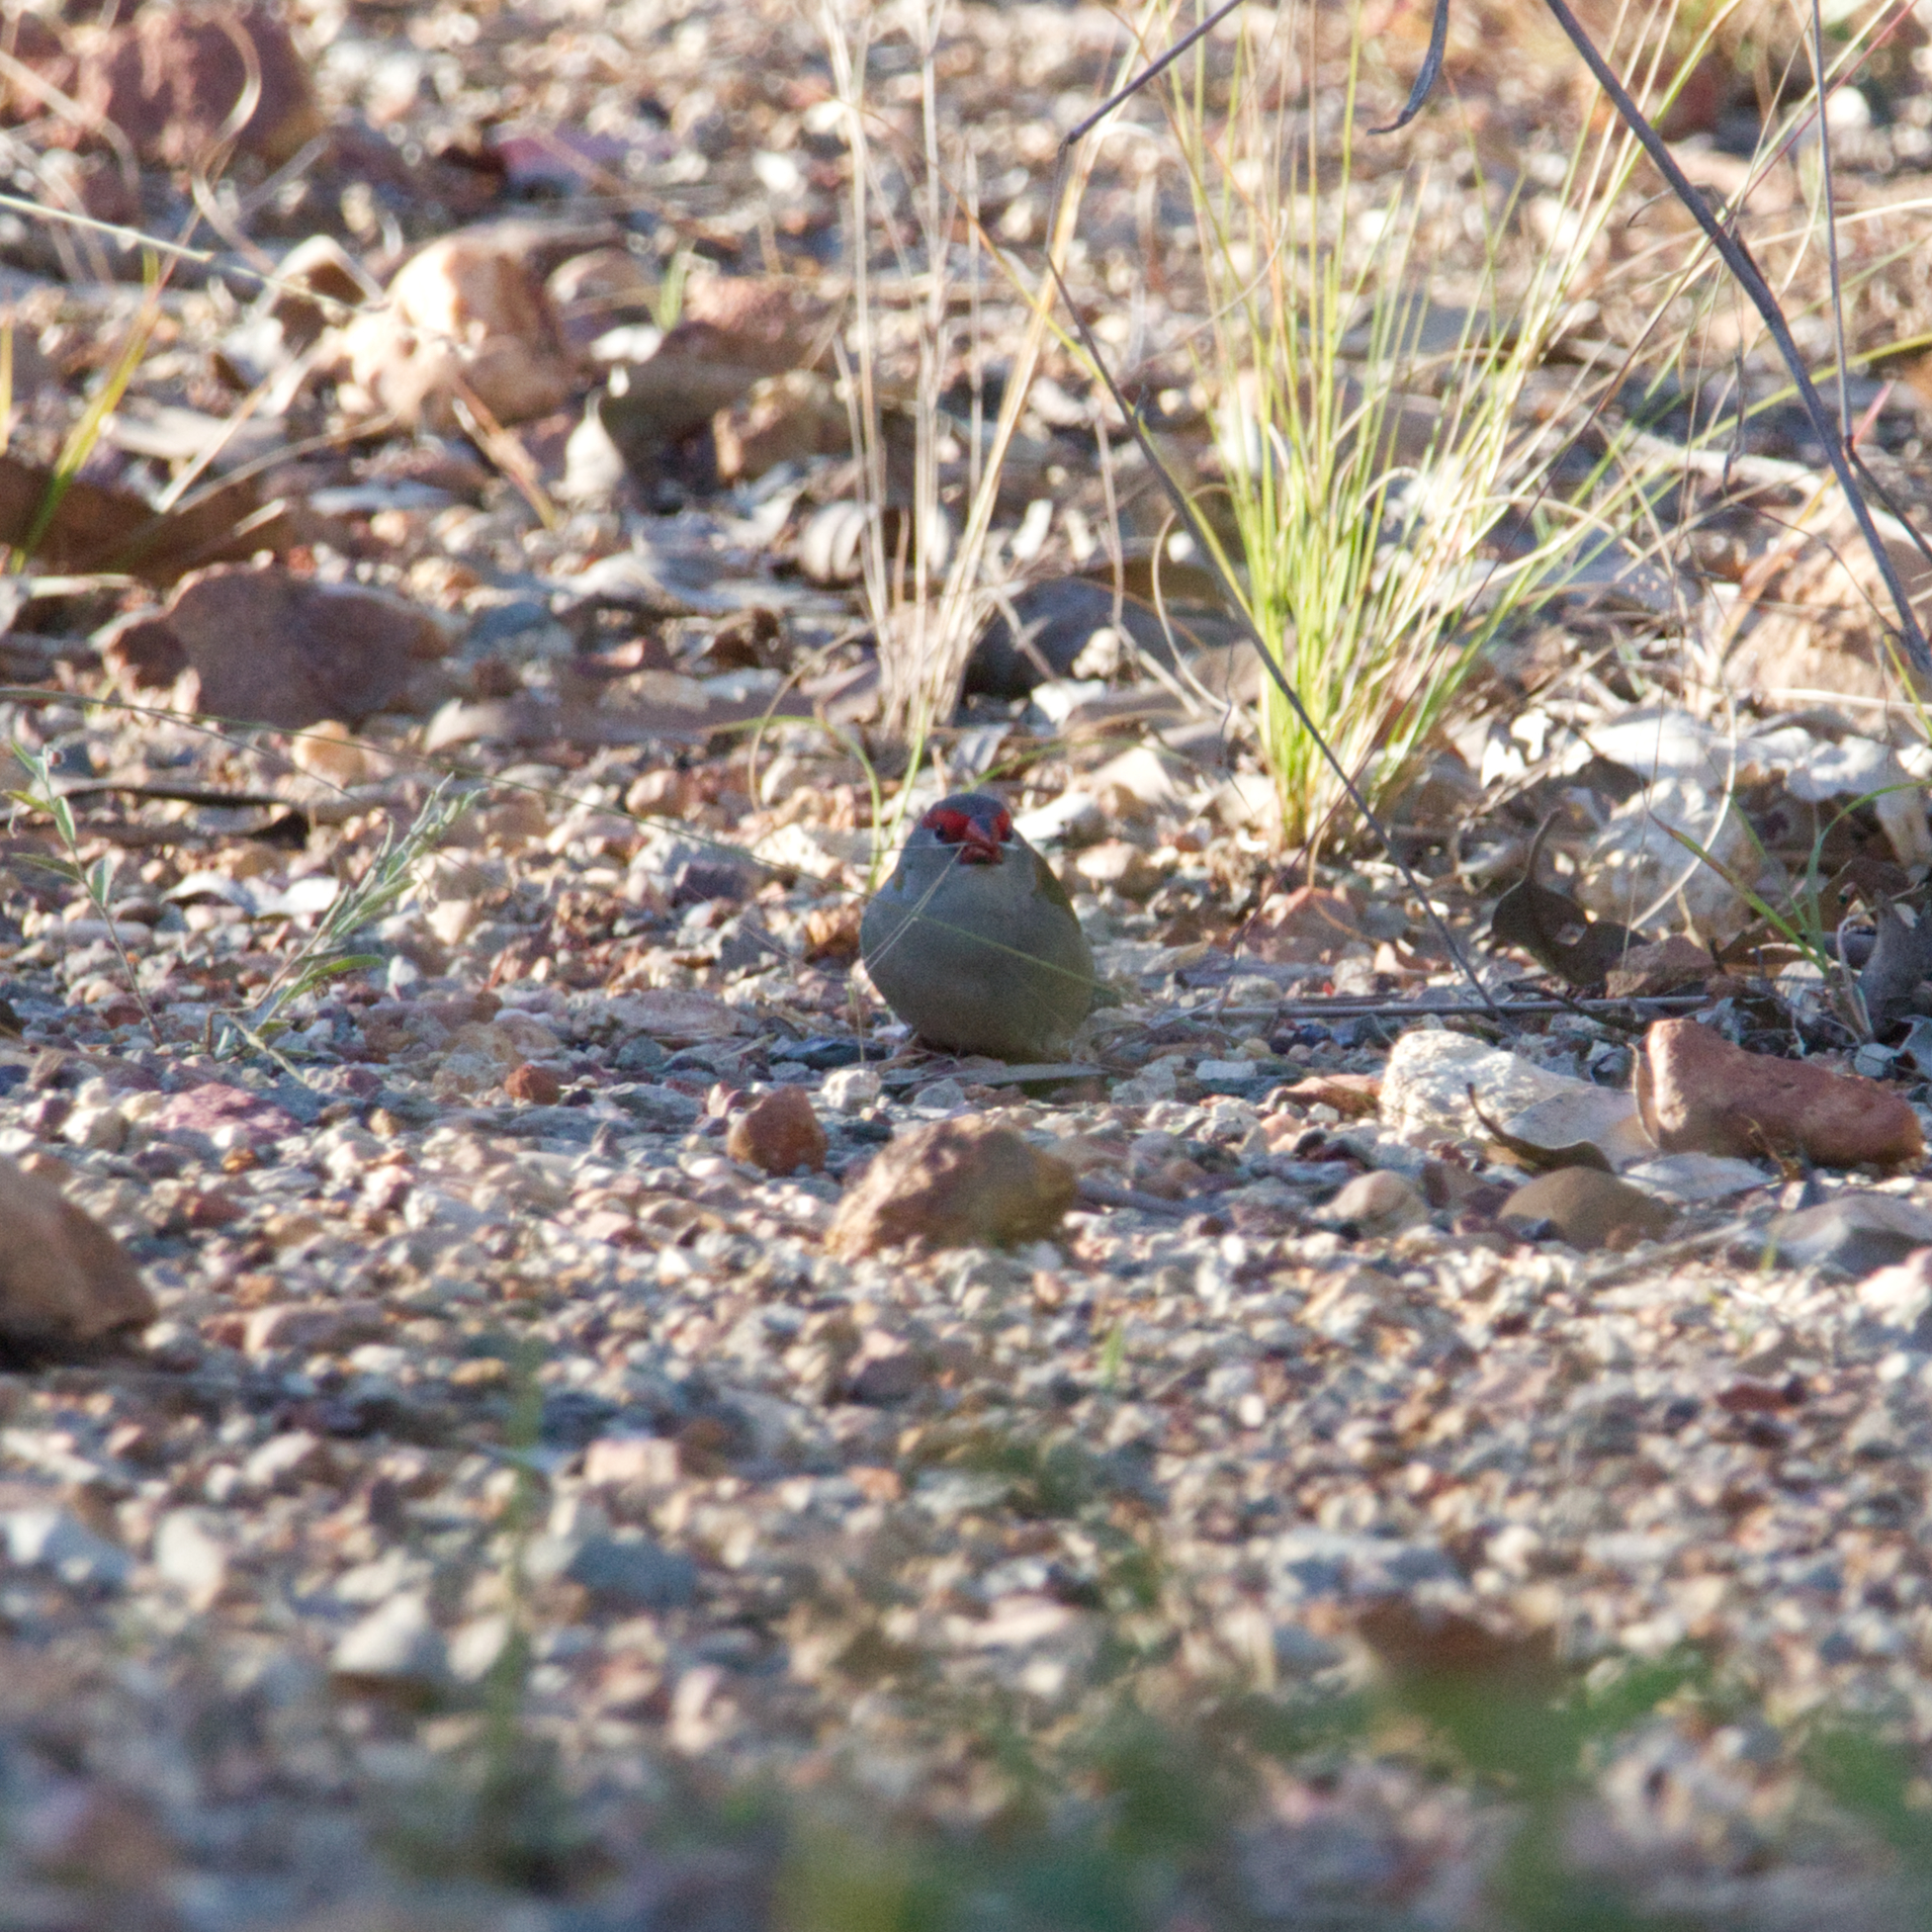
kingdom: Animalia
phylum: Chordata
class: Aves
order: Passeriformes
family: Estrildidae
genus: Neochmia
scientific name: Neochmia temporalis
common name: Red-browed finch
